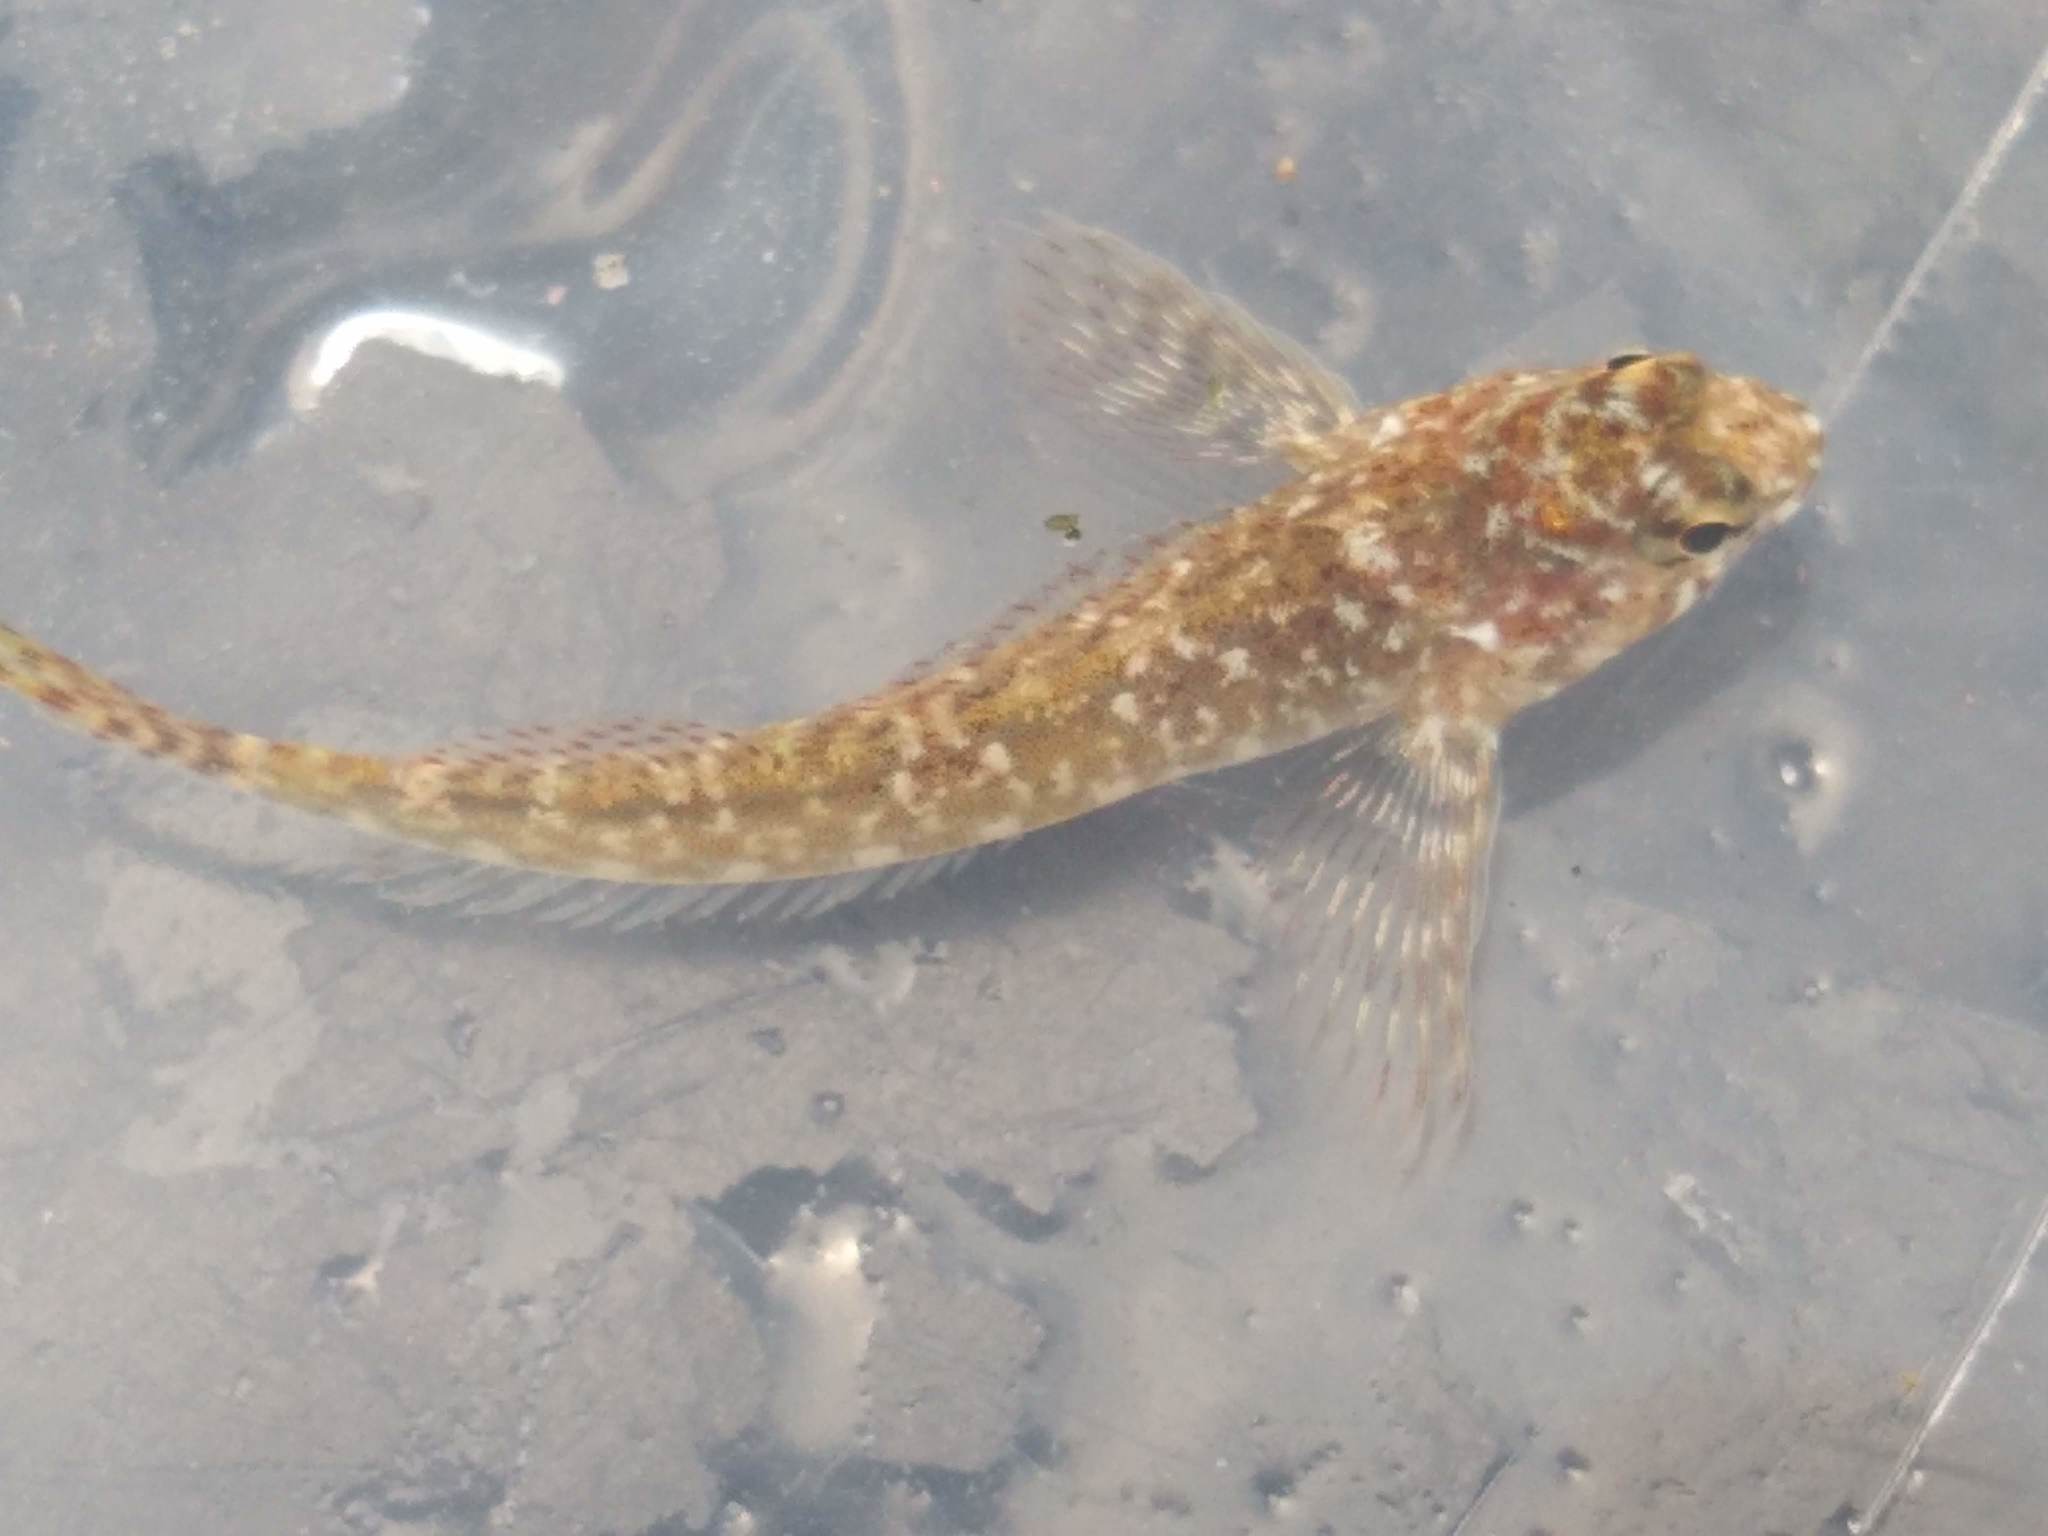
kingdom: Animalia
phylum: Chordata
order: Perciformes
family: Tripterygiidae
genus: Bellapiscis
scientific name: Bellapiscis medius
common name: Twister
